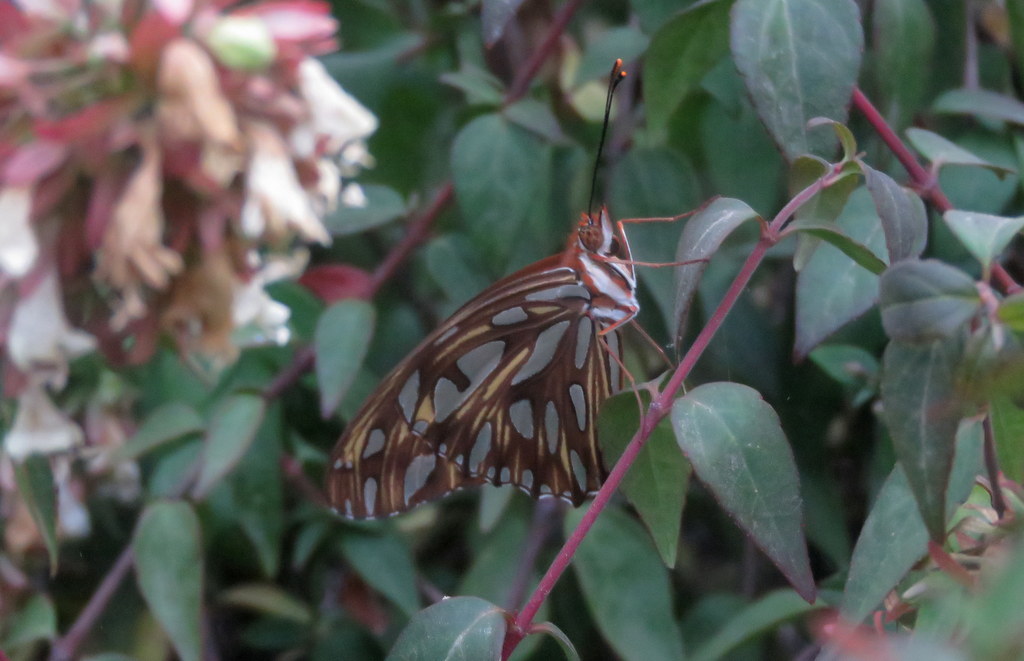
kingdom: Animalia
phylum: Arthropoda
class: Insecta
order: Lepidoptera
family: Nymphalidae
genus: Dione
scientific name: Dione vanillae
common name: Gulf fritillary
